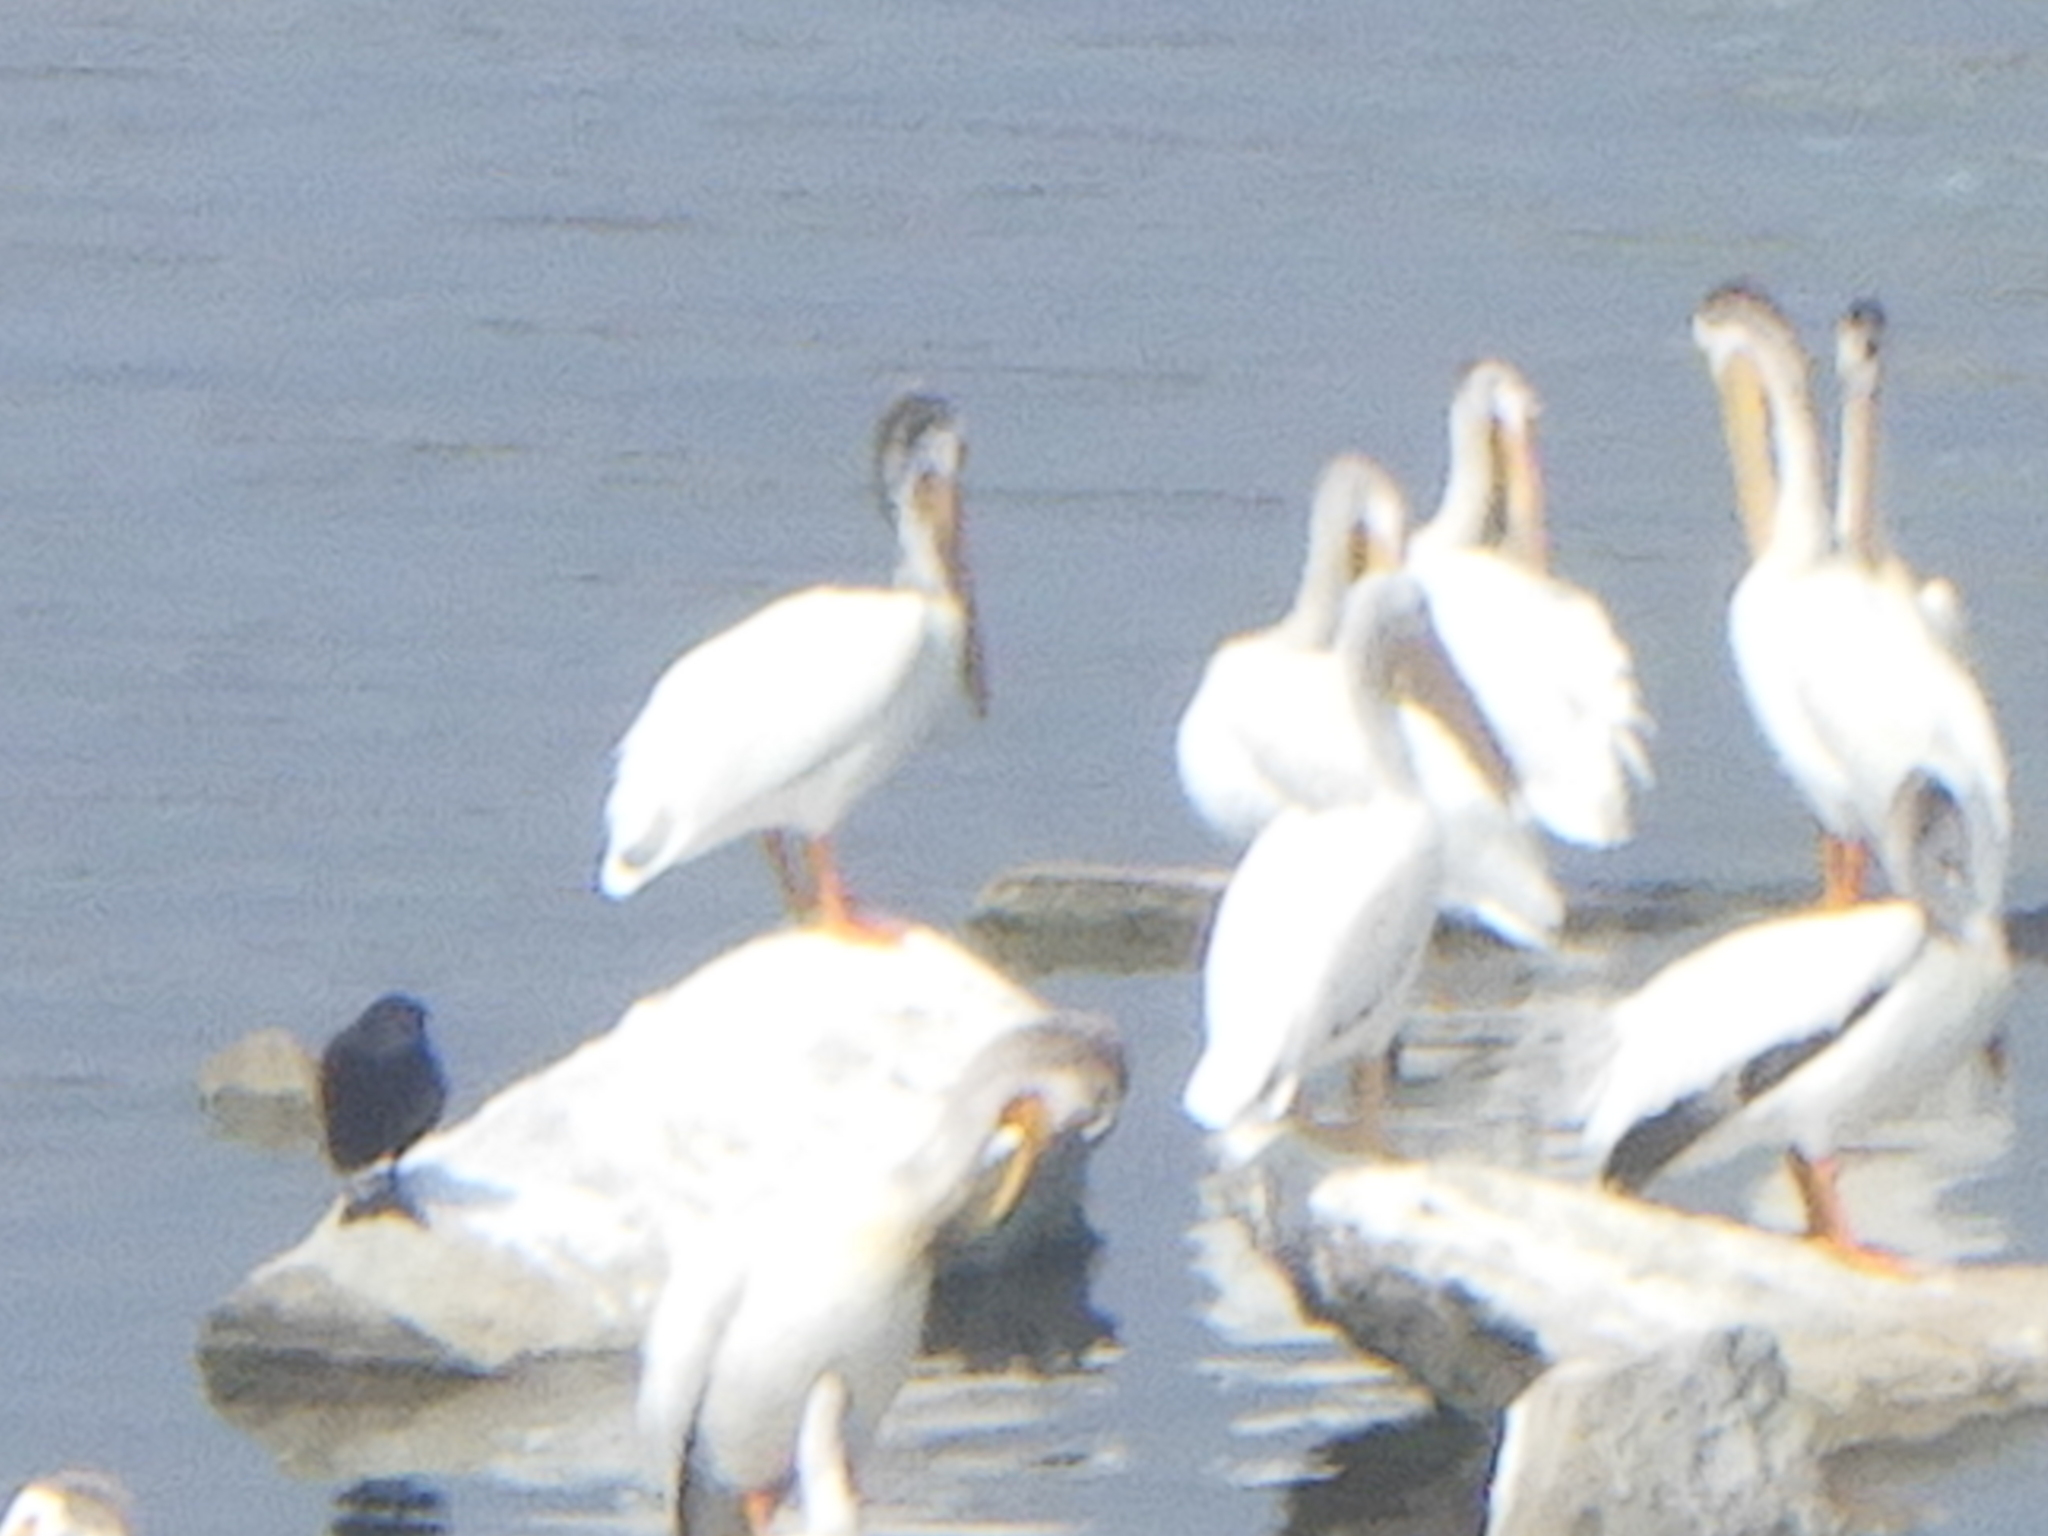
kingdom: Animalia
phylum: Chordata
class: Aves
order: Pelecaniformes
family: Pelecanidae
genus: Pelecanus
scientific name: Pelecanus erythrorhynchos
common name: American white pelican
